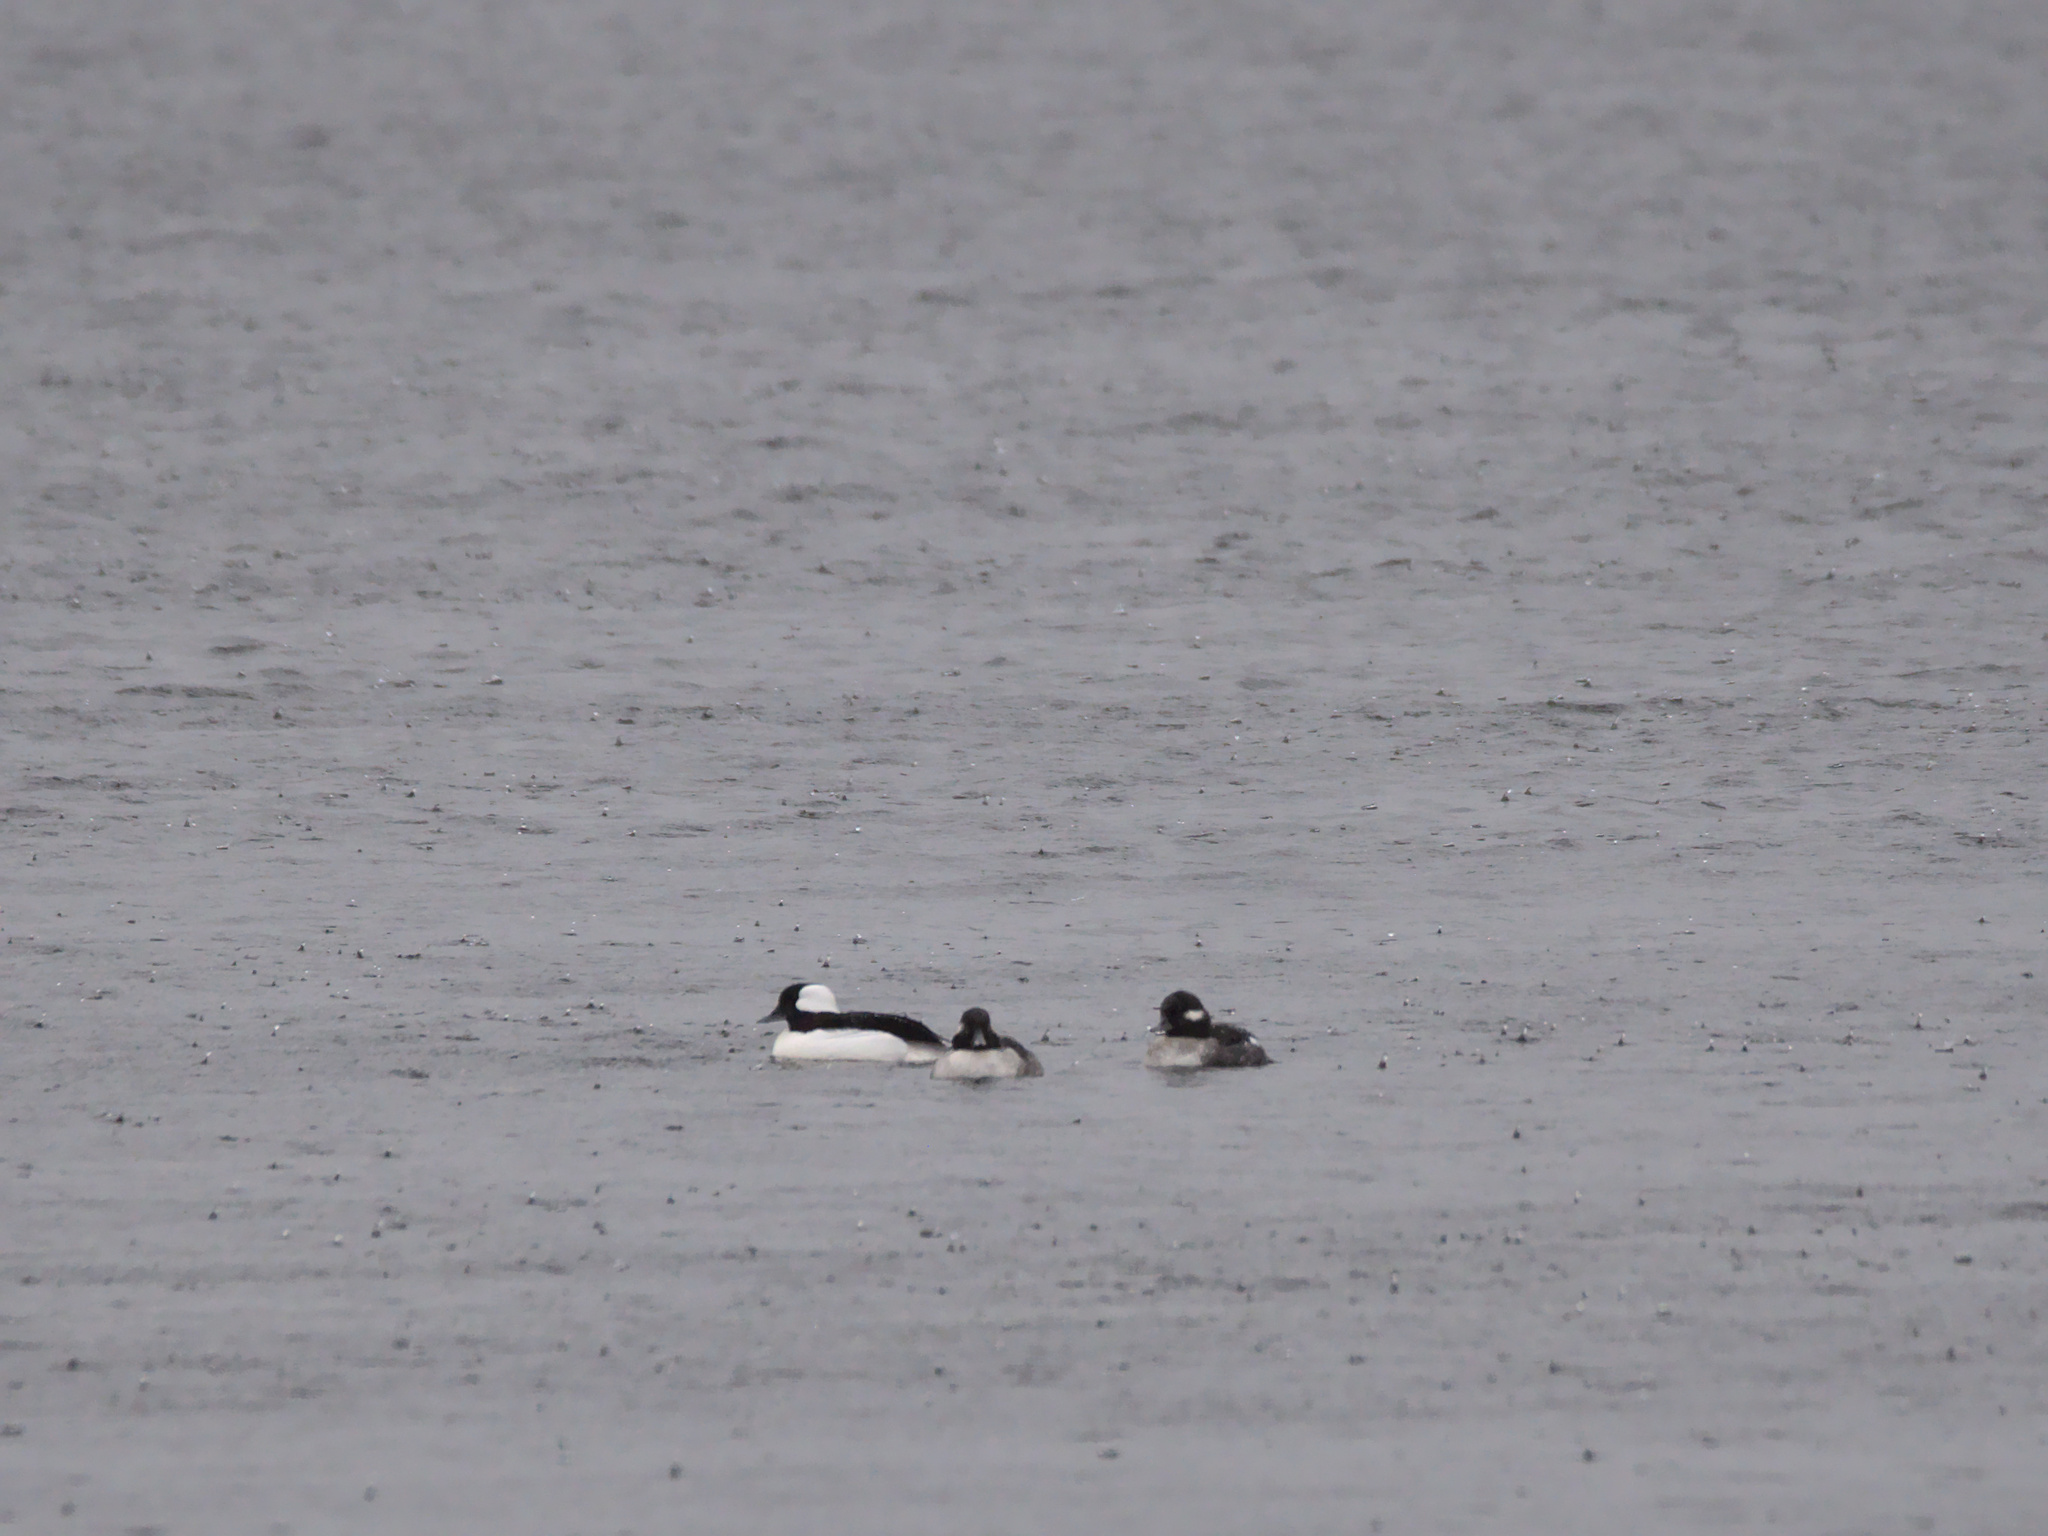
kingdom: Animalia
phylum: Chordata
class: Aves
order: Anseriformes
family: Anatidae
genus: Bucephala
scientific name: Bucephala albeola
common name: Bufflehead
